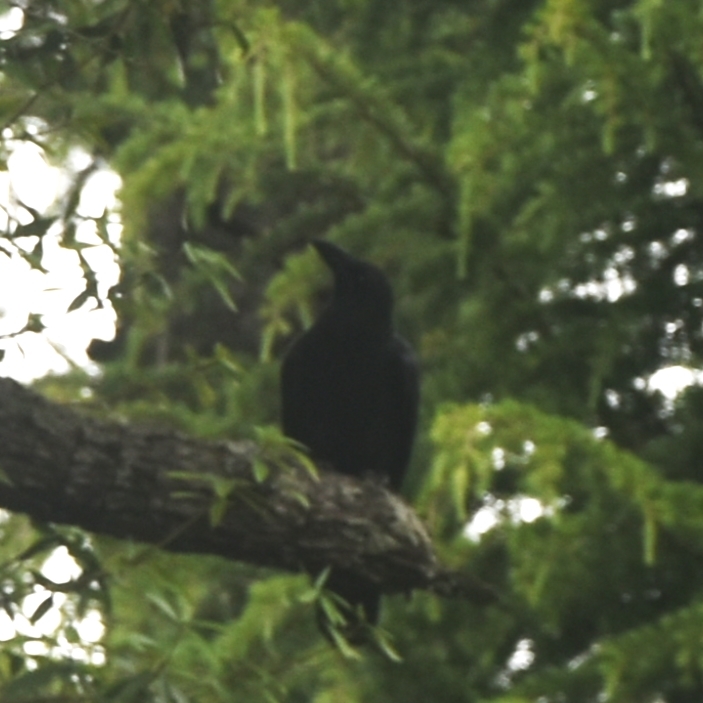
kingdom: Animalia
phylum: Chordata
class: Aves
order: Passeriformes
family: Corvidae
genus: Corvus
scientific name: Corvus macrorhynchos
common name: Large-billed crow
